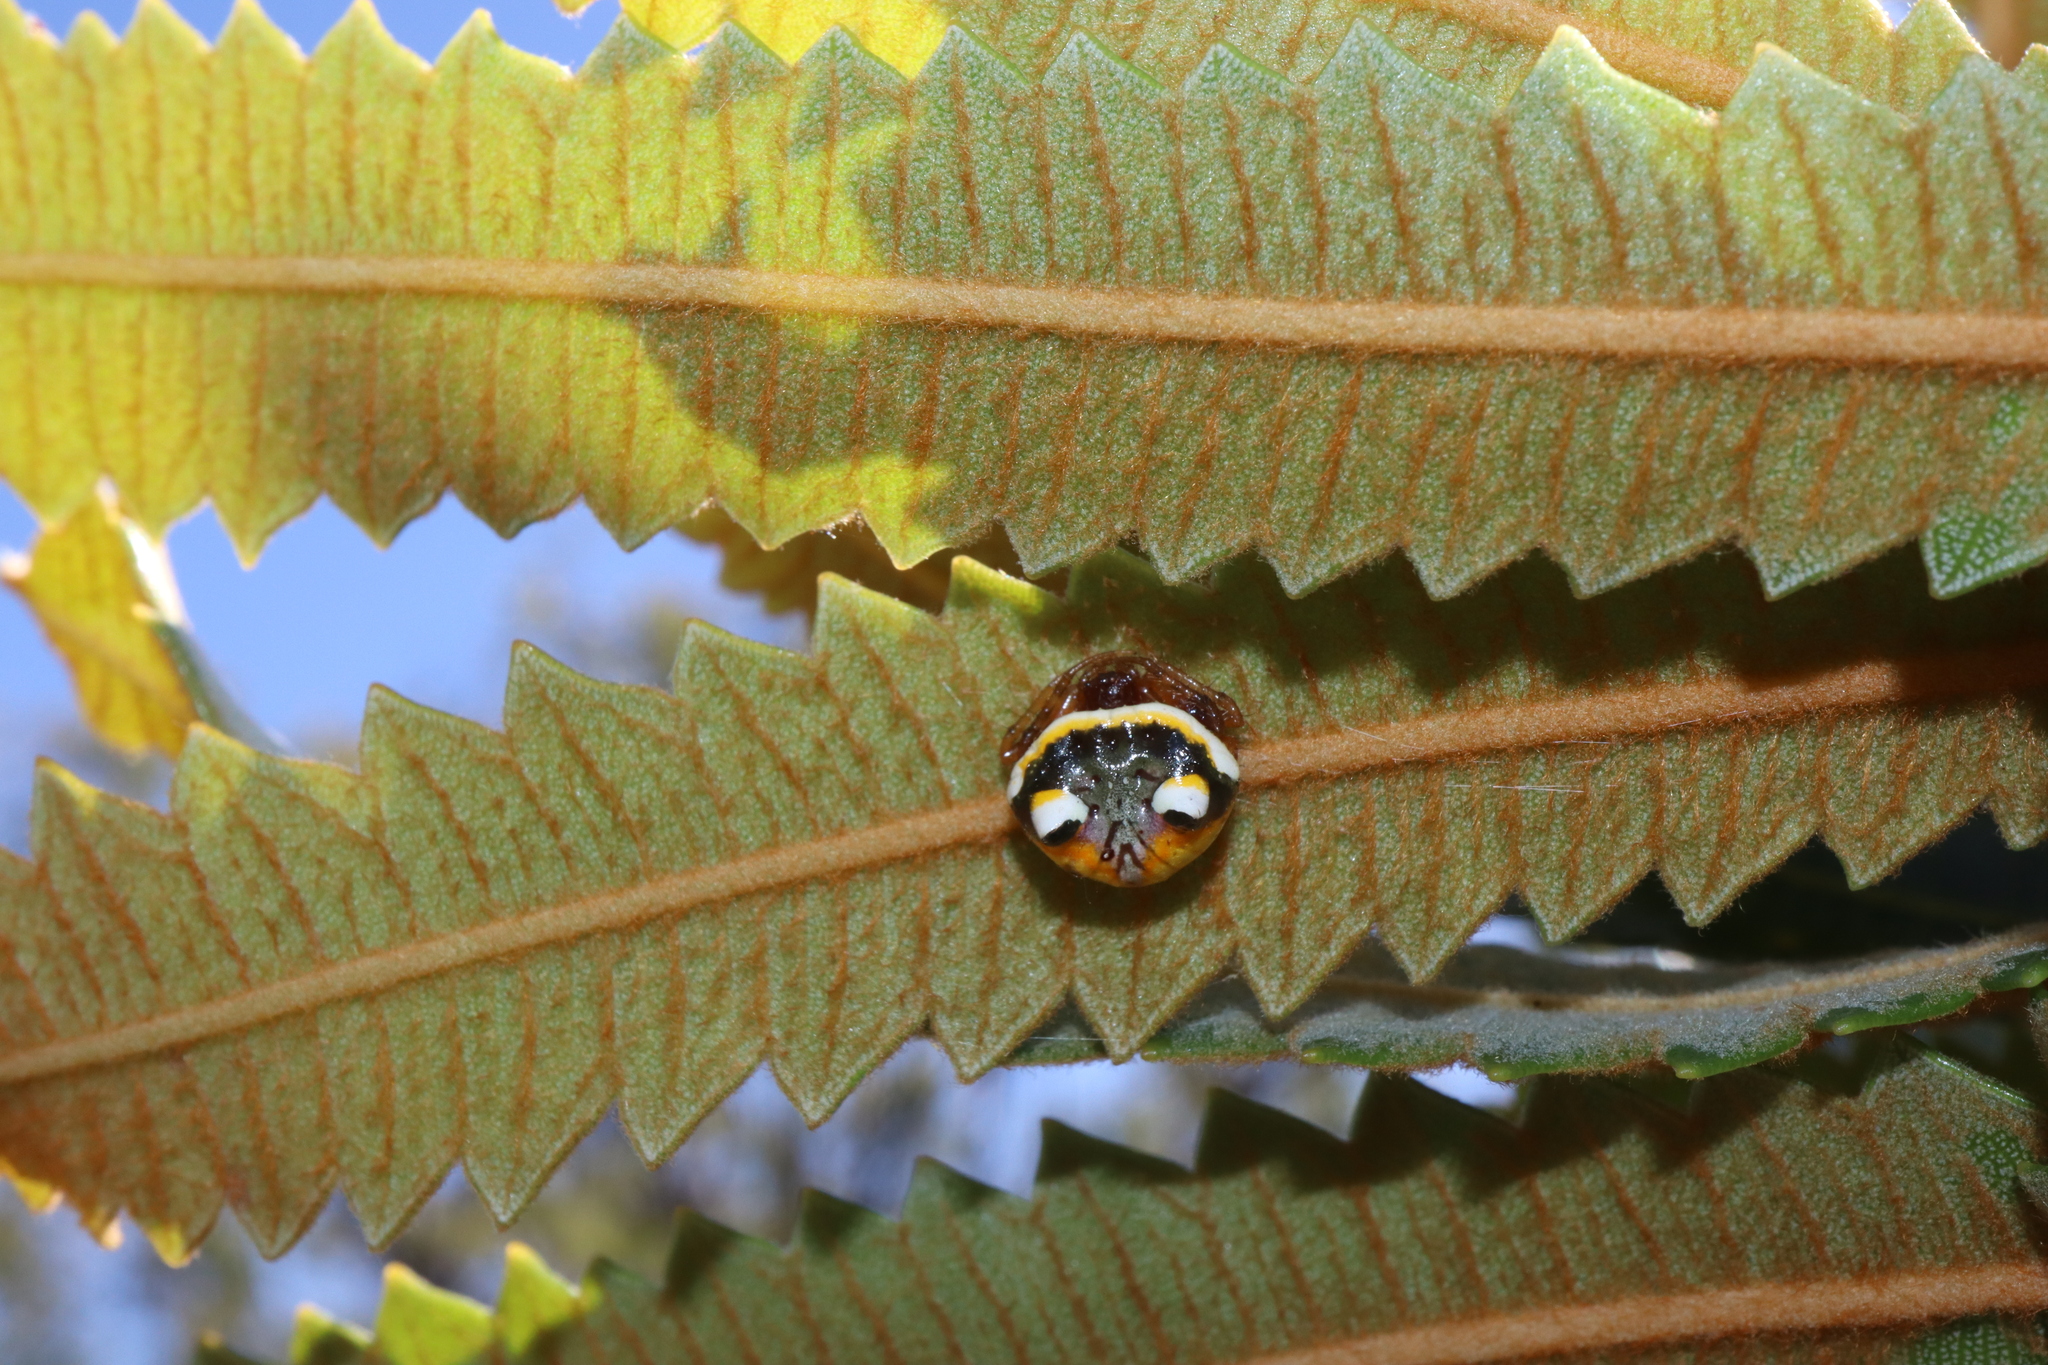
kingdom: Animalia
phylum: Arthropoda
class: Arachnida
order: Araneae
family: Araneidae
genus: Poecilopachys
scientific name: Poecilopachys australasia
